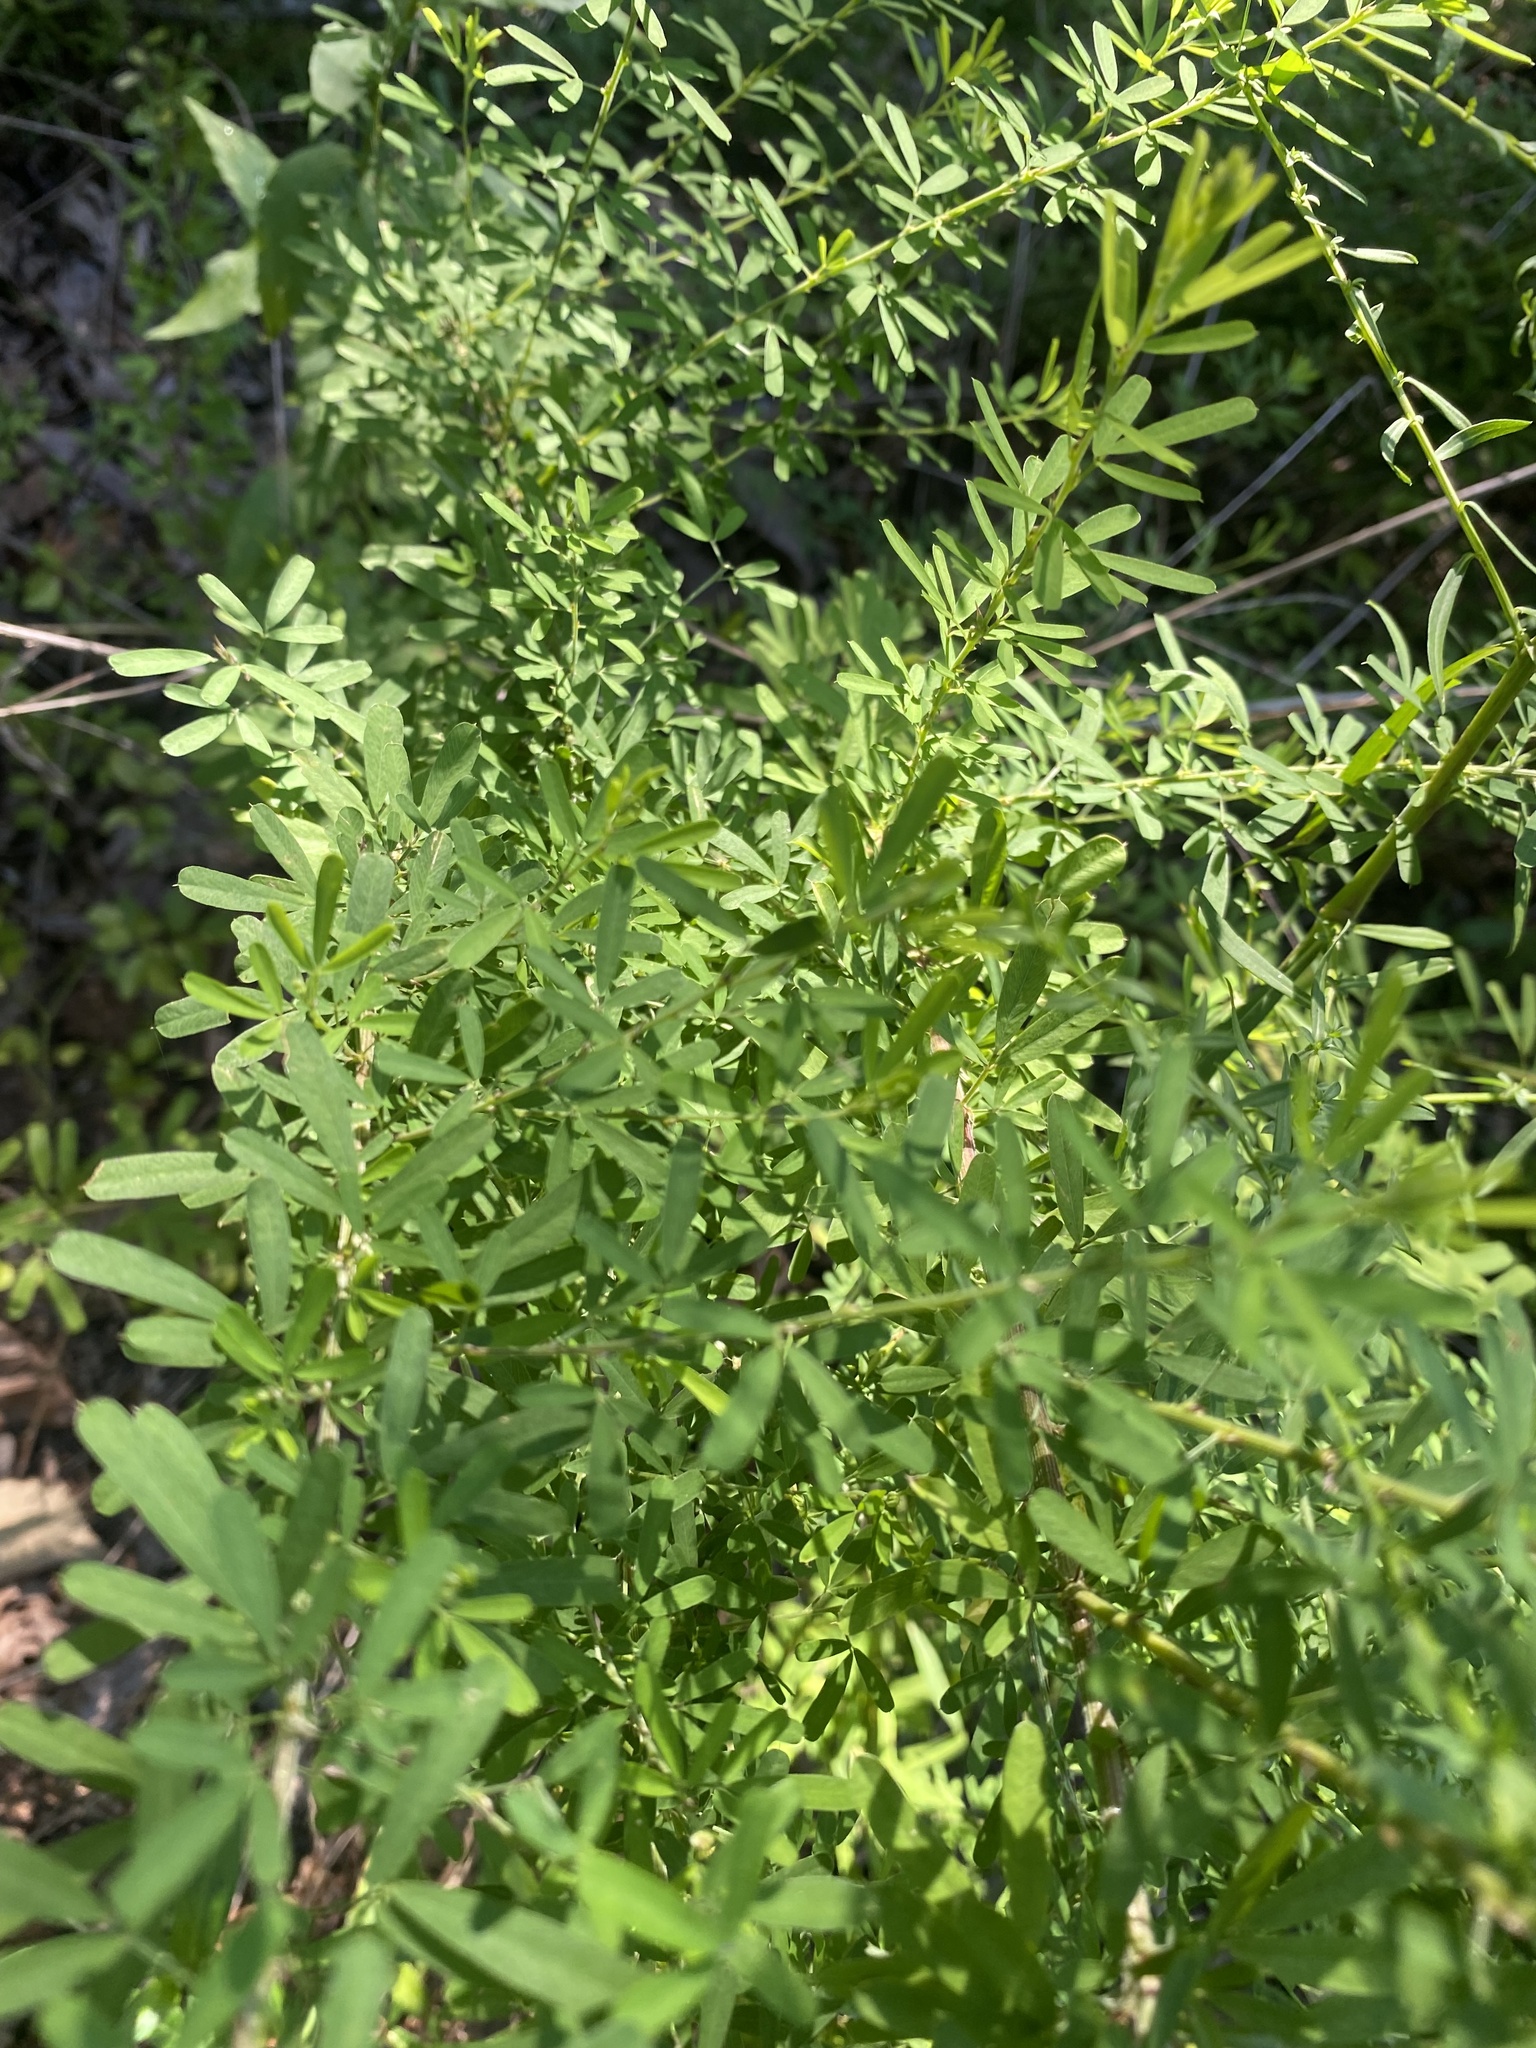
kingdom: Plantae
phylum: Tracheophyta
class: Magnoliopsida
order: Fabales
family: Fabaceae
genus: Lespedeza
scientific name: Lespedeza cuneata
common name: Chinese bush-clover
